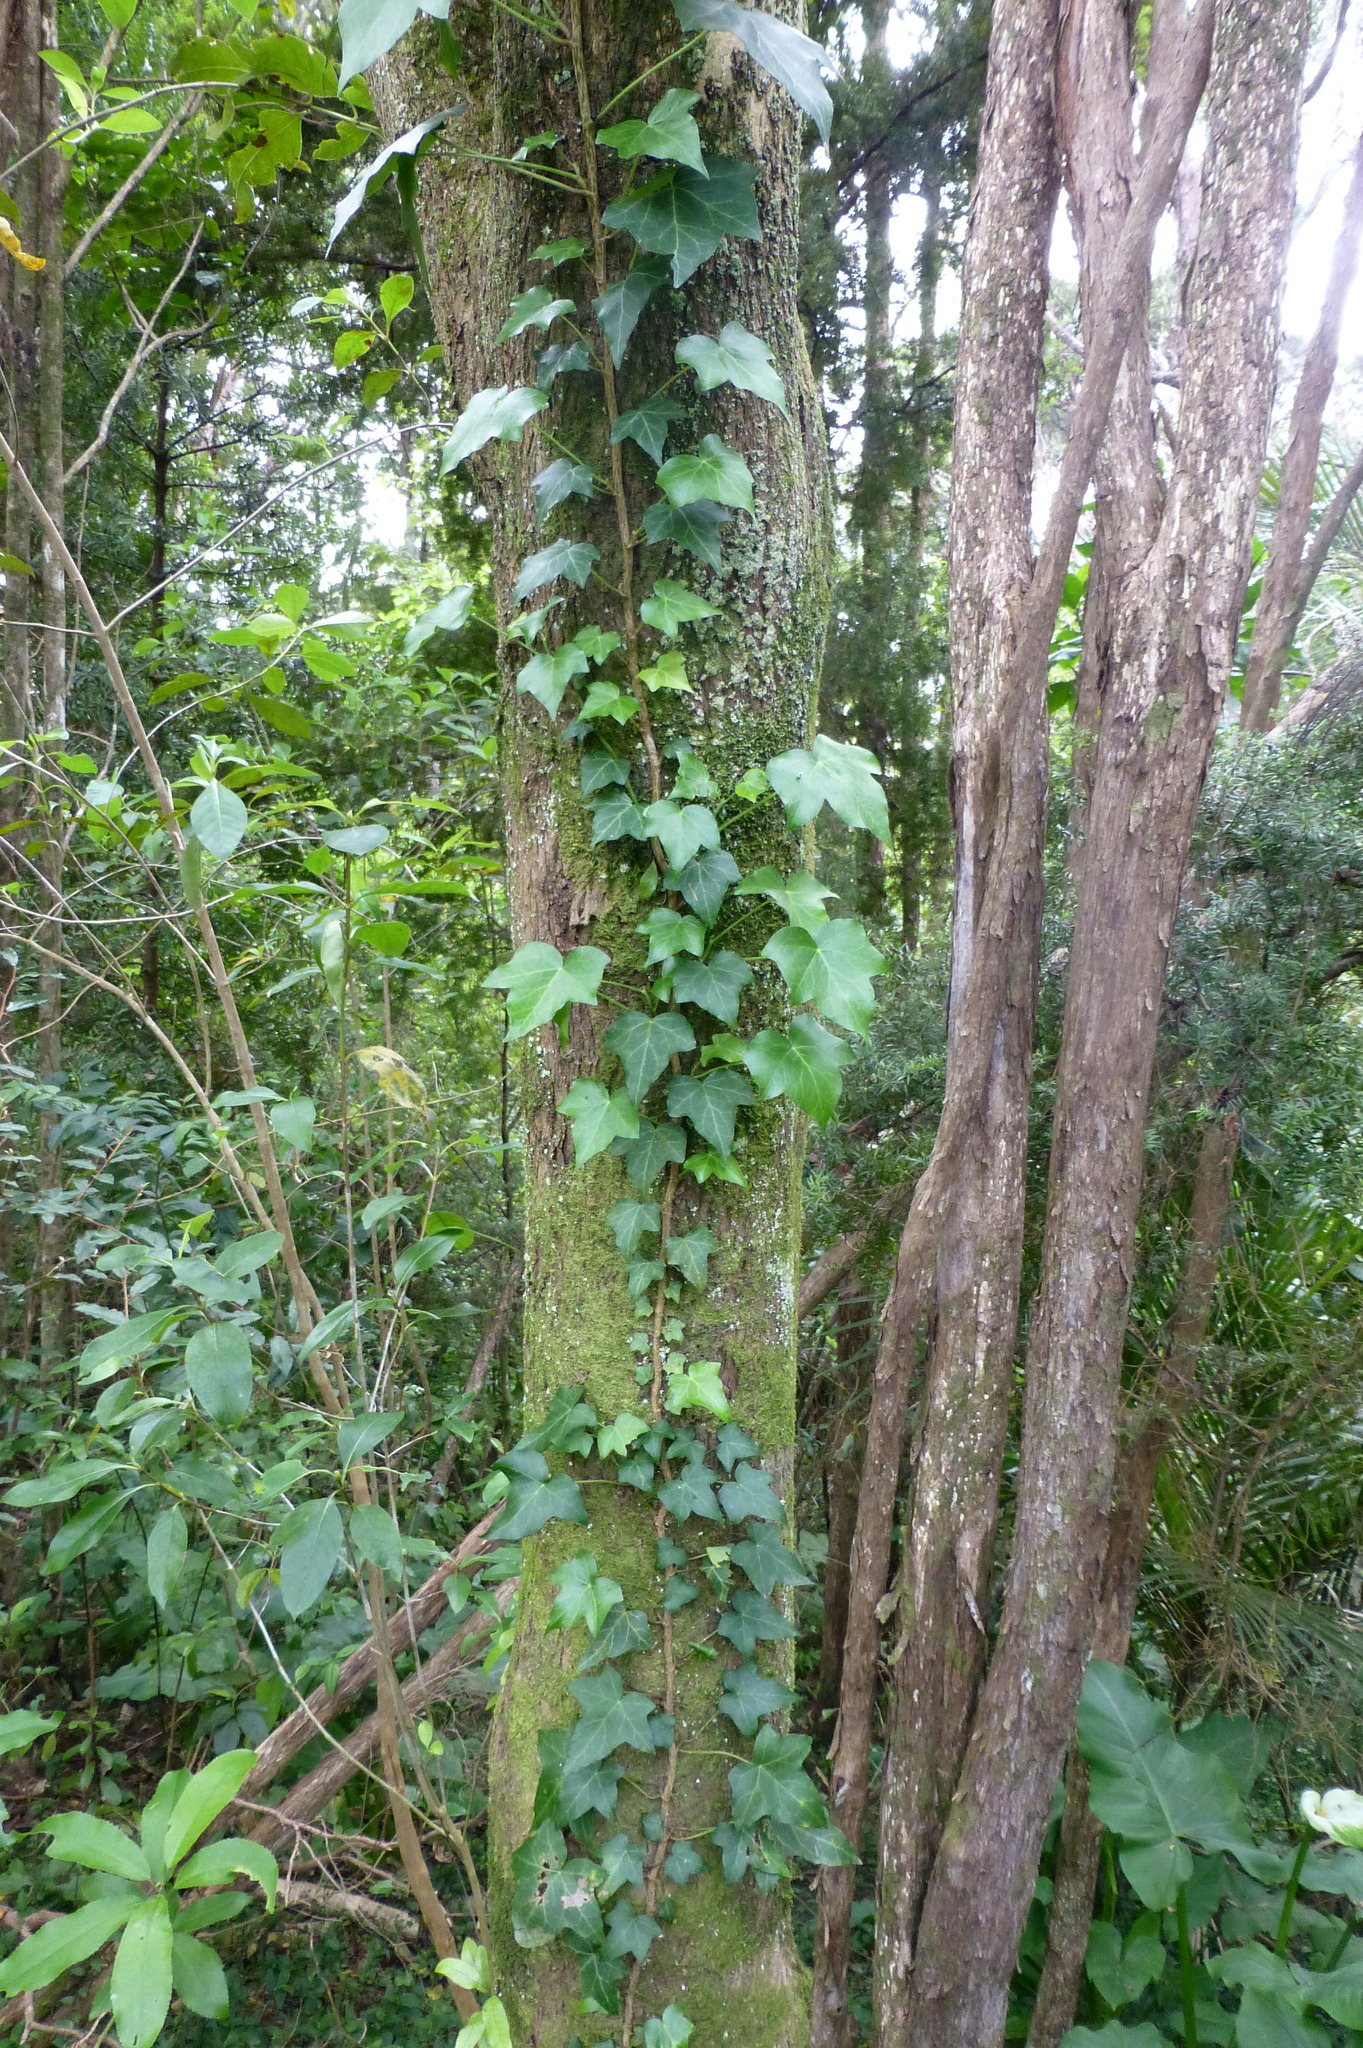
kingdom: Plantae
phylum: Tracheophyta
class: Magnoliopsida
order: Apiales
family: Araliaceae
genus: Hedera
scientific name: Hedera helix
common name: Ivy
